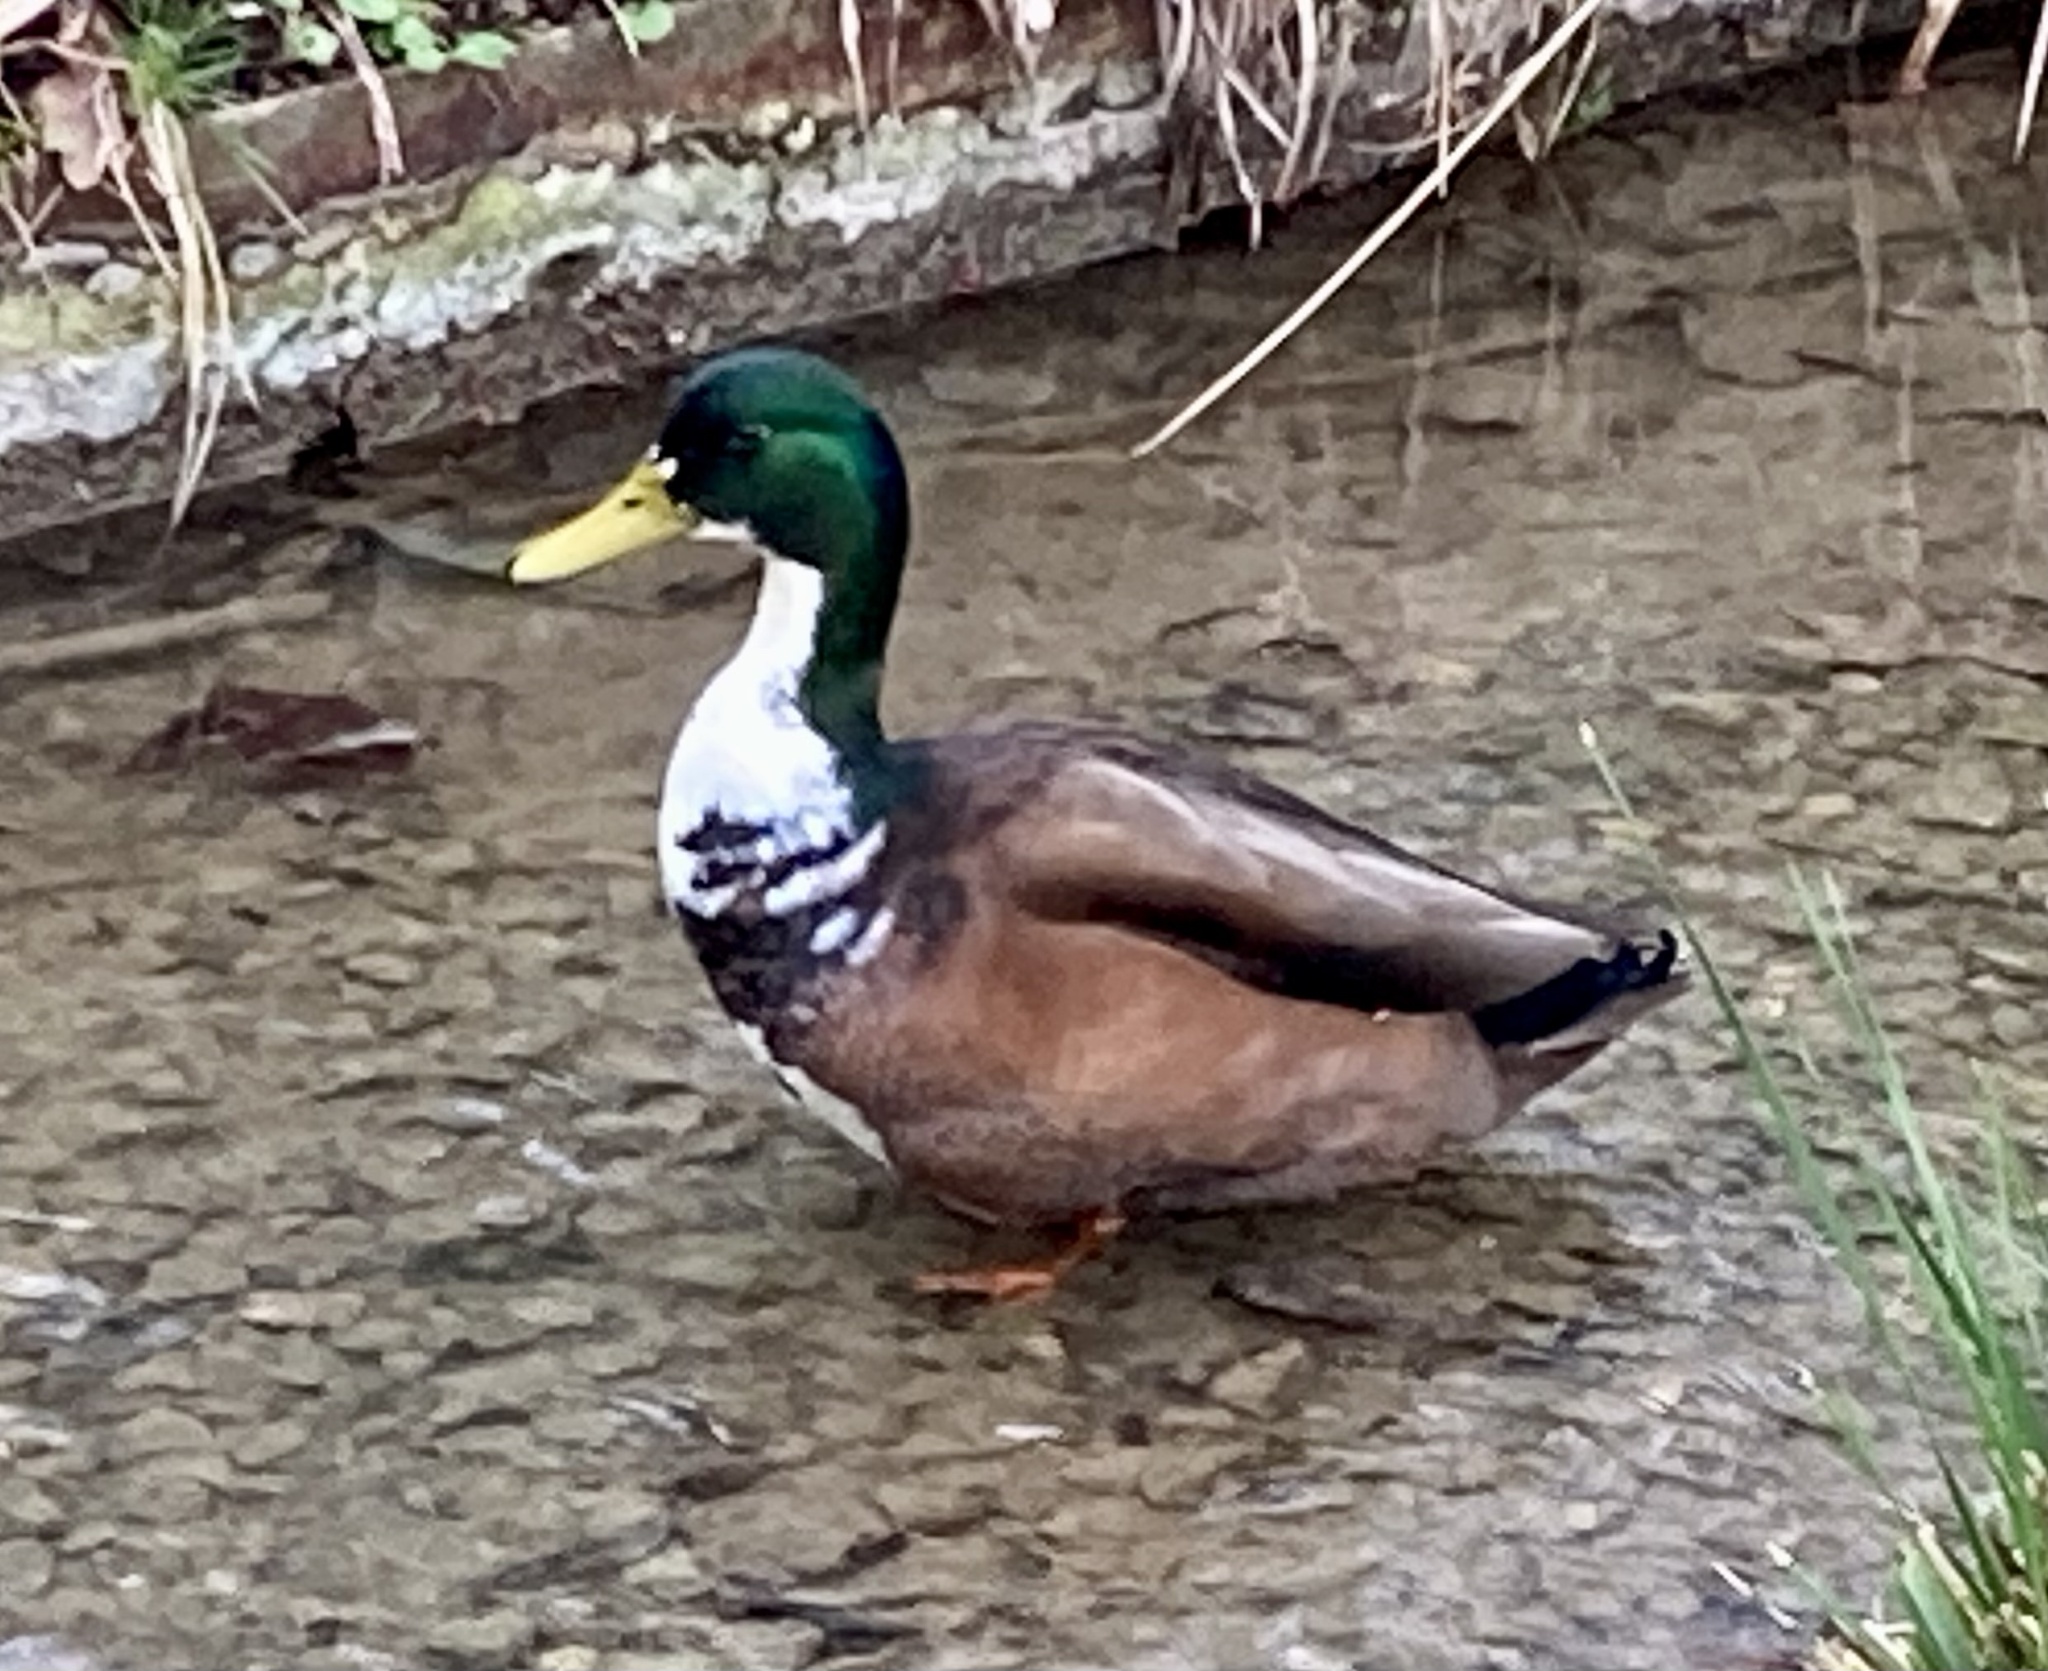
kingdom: Animalia
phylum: Chordata
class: Aves
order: Anseriformes
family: Anatidae
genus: Anas
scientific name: Anas platyrhynchos
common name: Mallard
